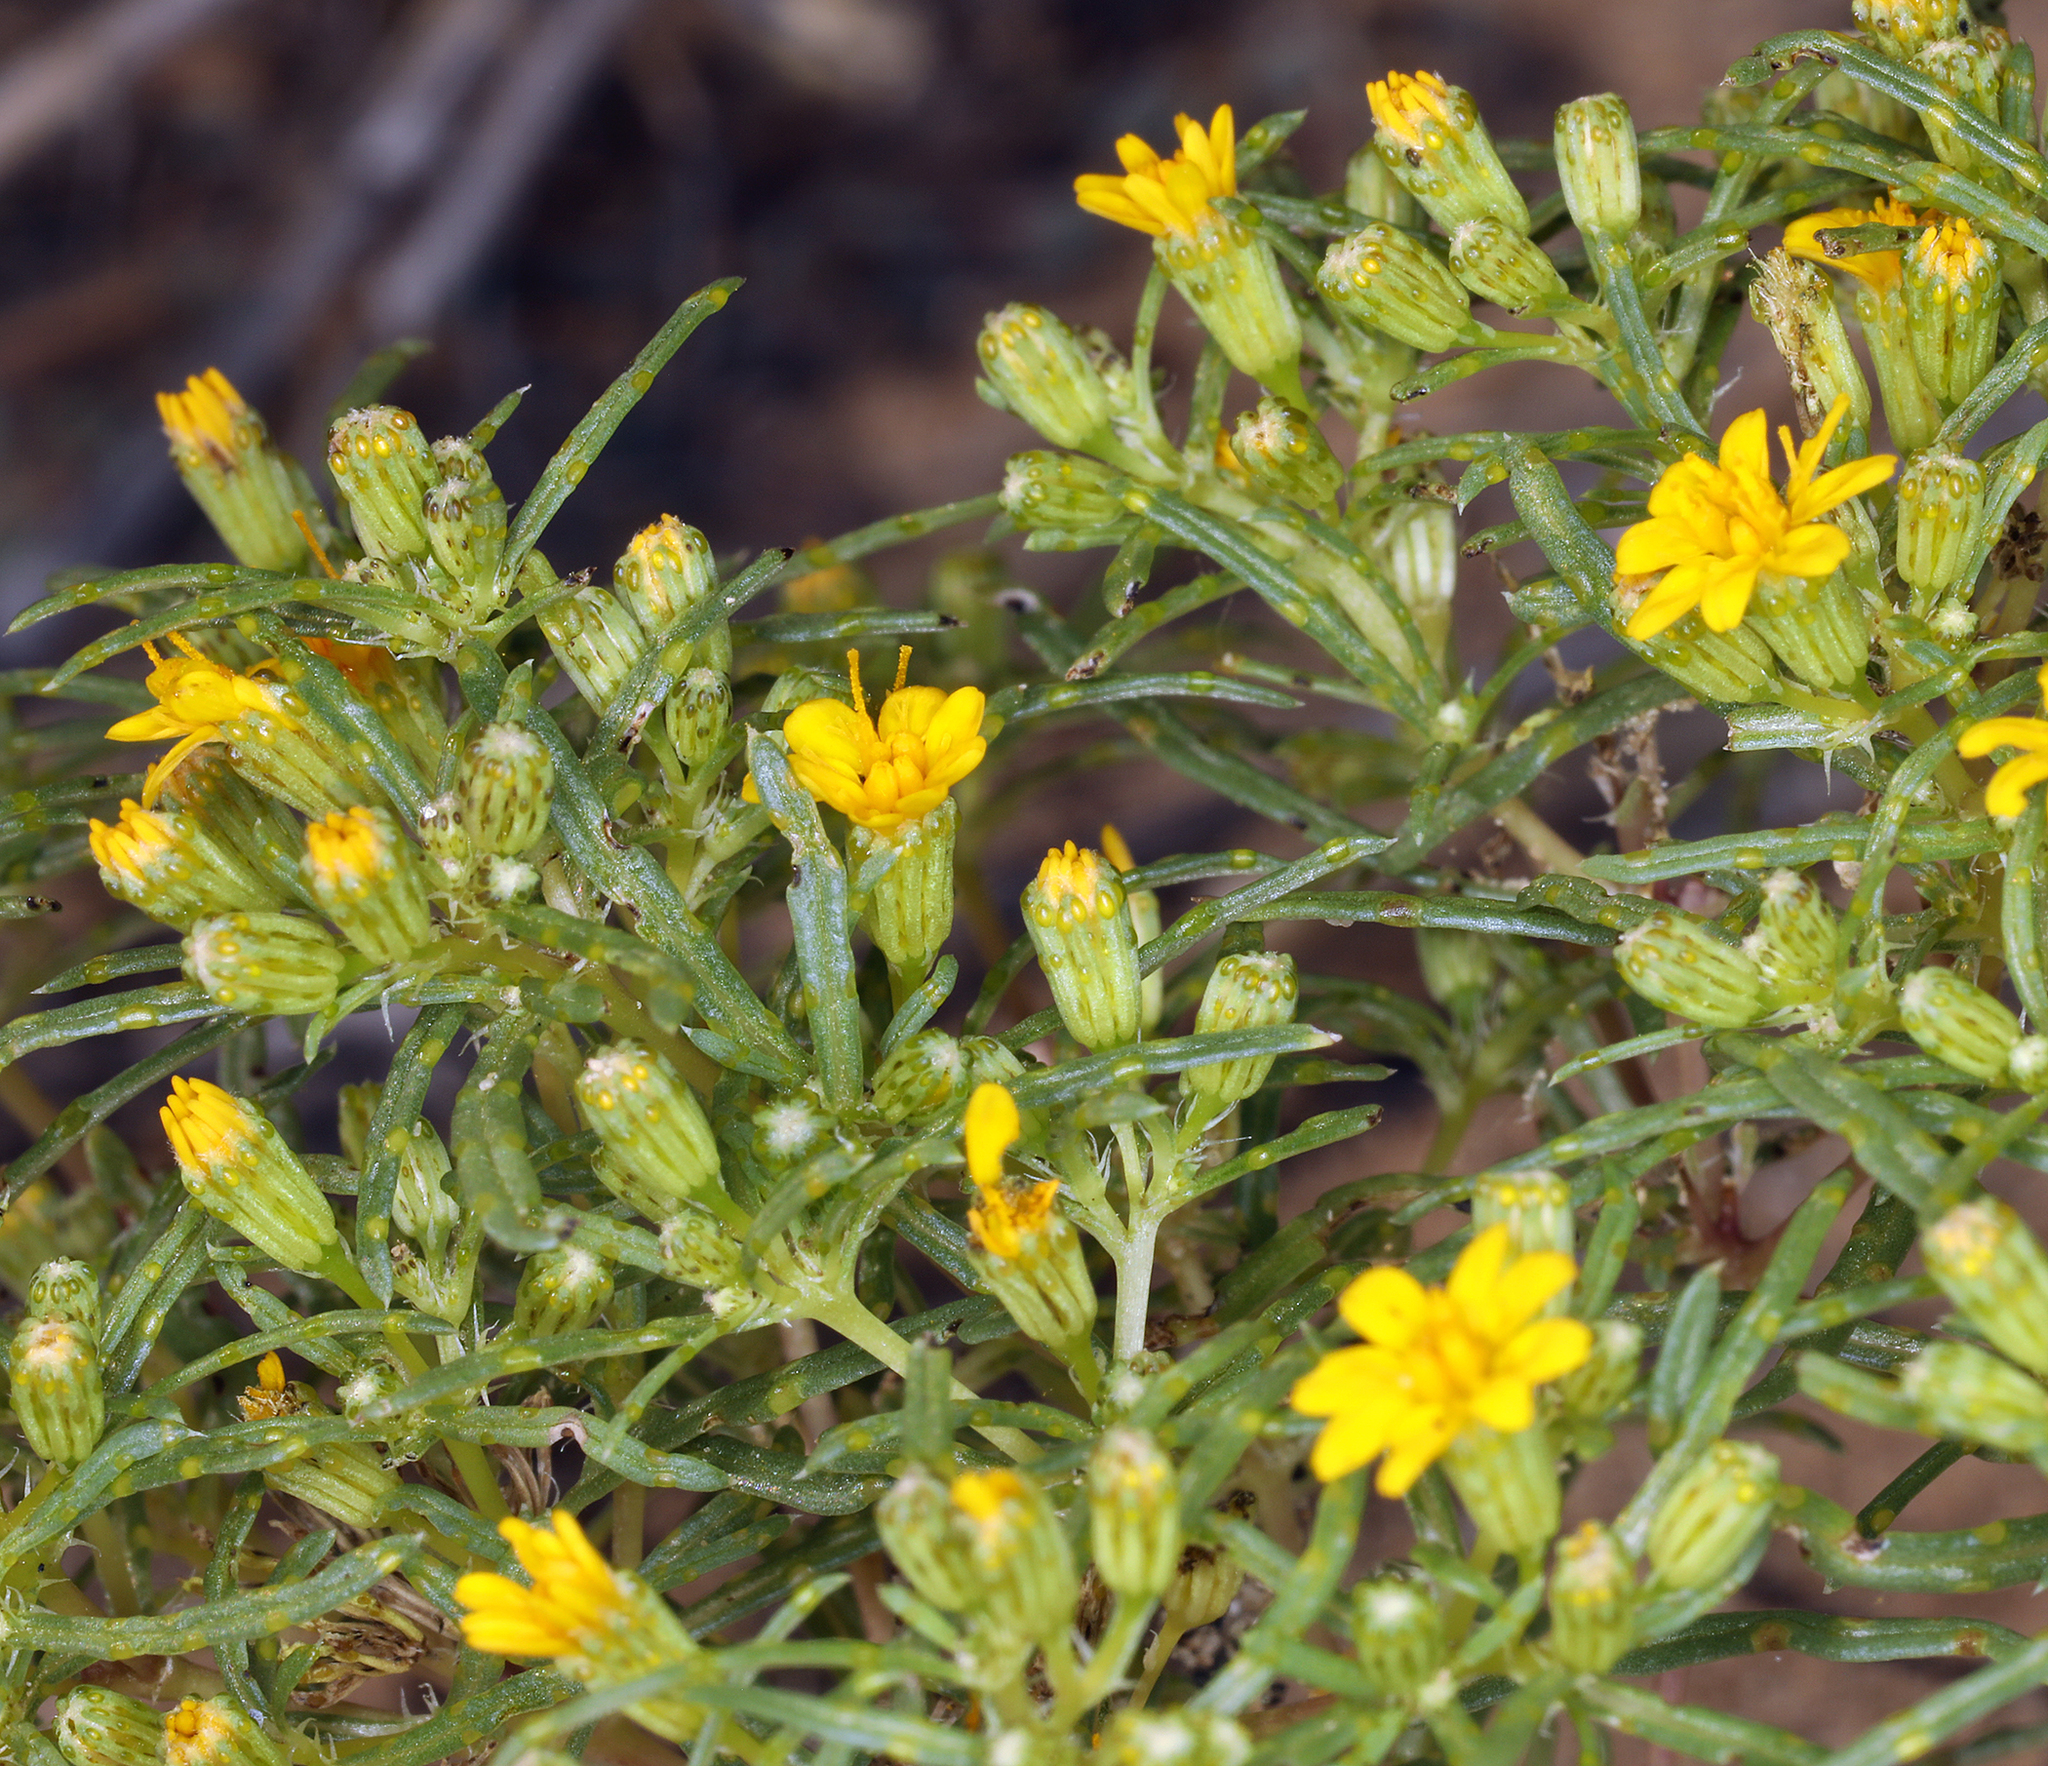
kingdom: Plantae
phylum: Tracheophyta
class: Magnoliopsida
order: Asterales
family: Asteraceae
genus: Pectis
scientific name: Pectis papposa
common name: Many-bristle chinchweed
